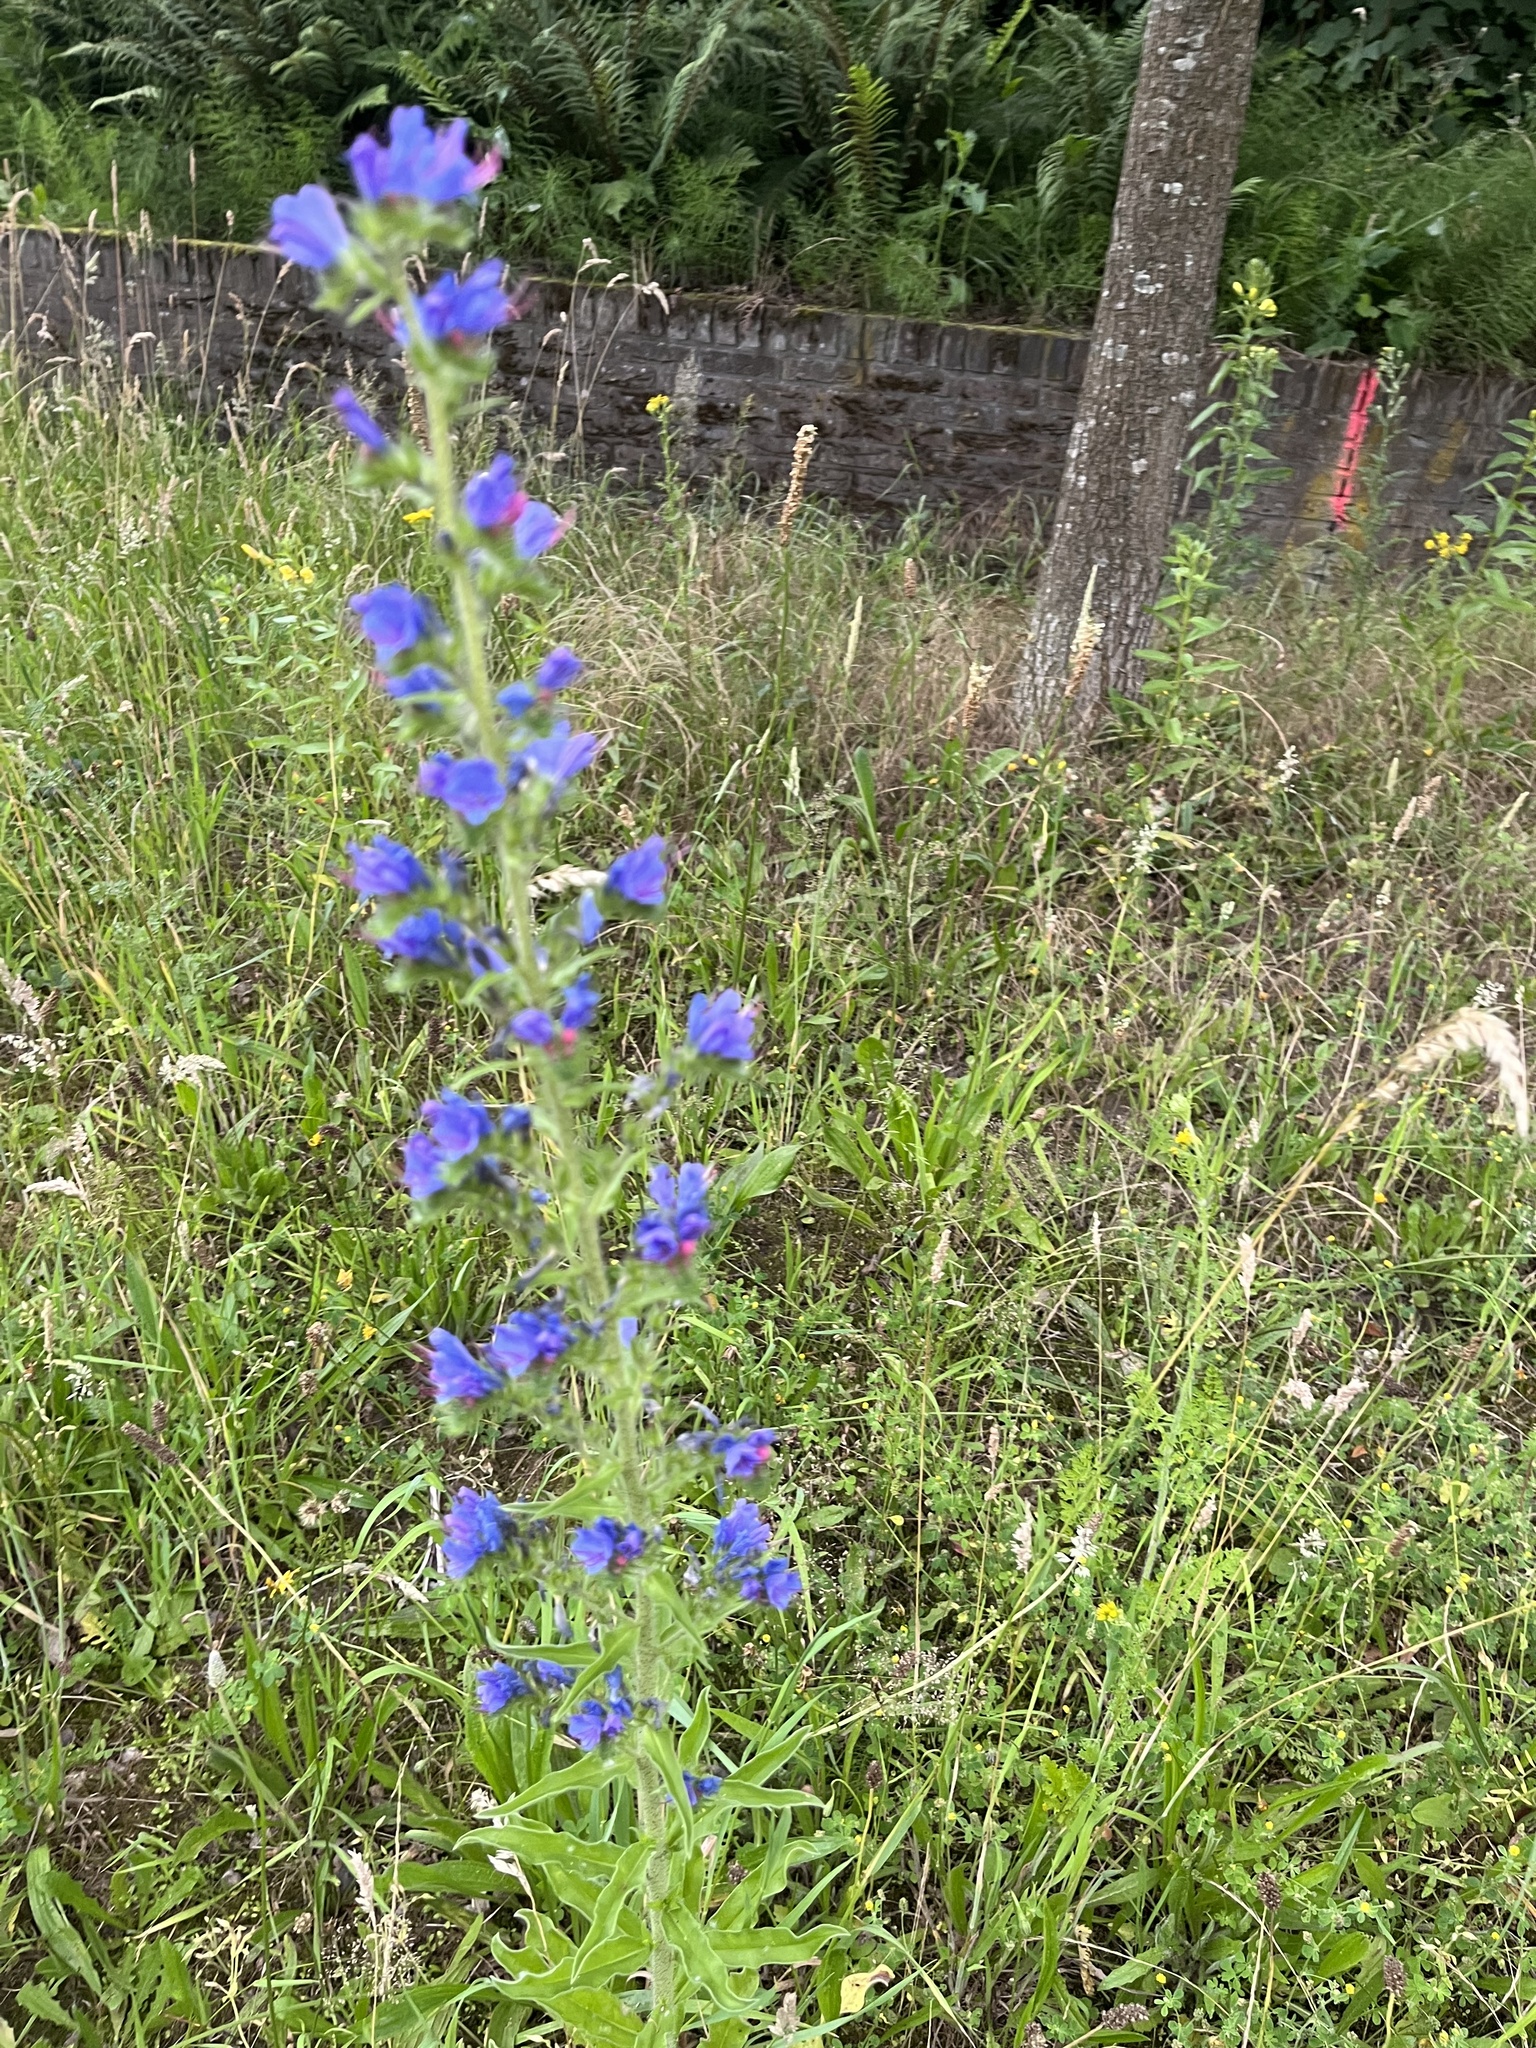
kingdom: Plantae
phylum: Tracheophyta
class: Magnoliopsida
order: Boraginales
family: Boraginaceae
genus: Echium
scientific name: Echium vulgare
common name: Common viper's bugloss
